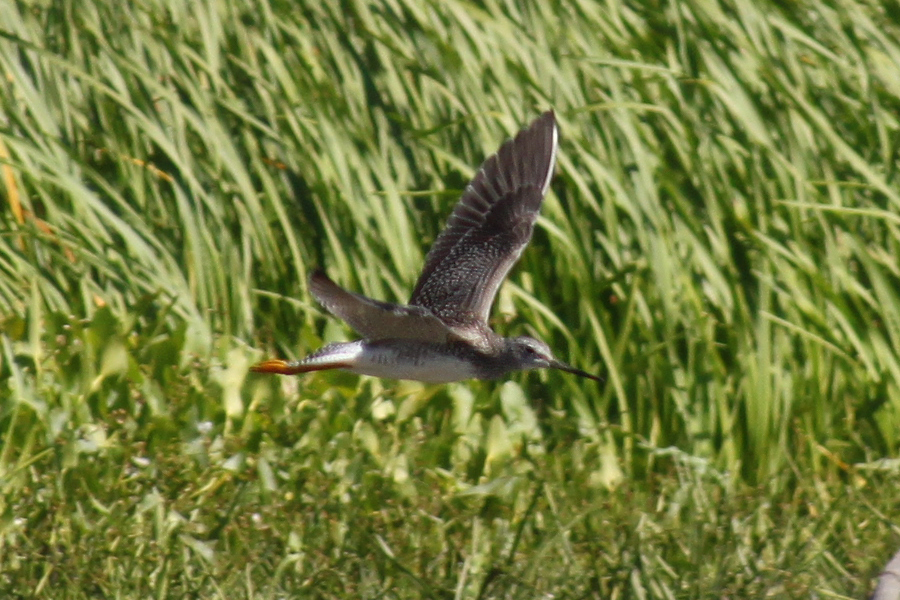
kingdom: Animalia
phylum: Chordata
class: Aves
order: Charadriiformes
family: Scolopacidae
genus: Tringa
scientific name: Tringa melanoleuca
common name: Greater yellowlegs
